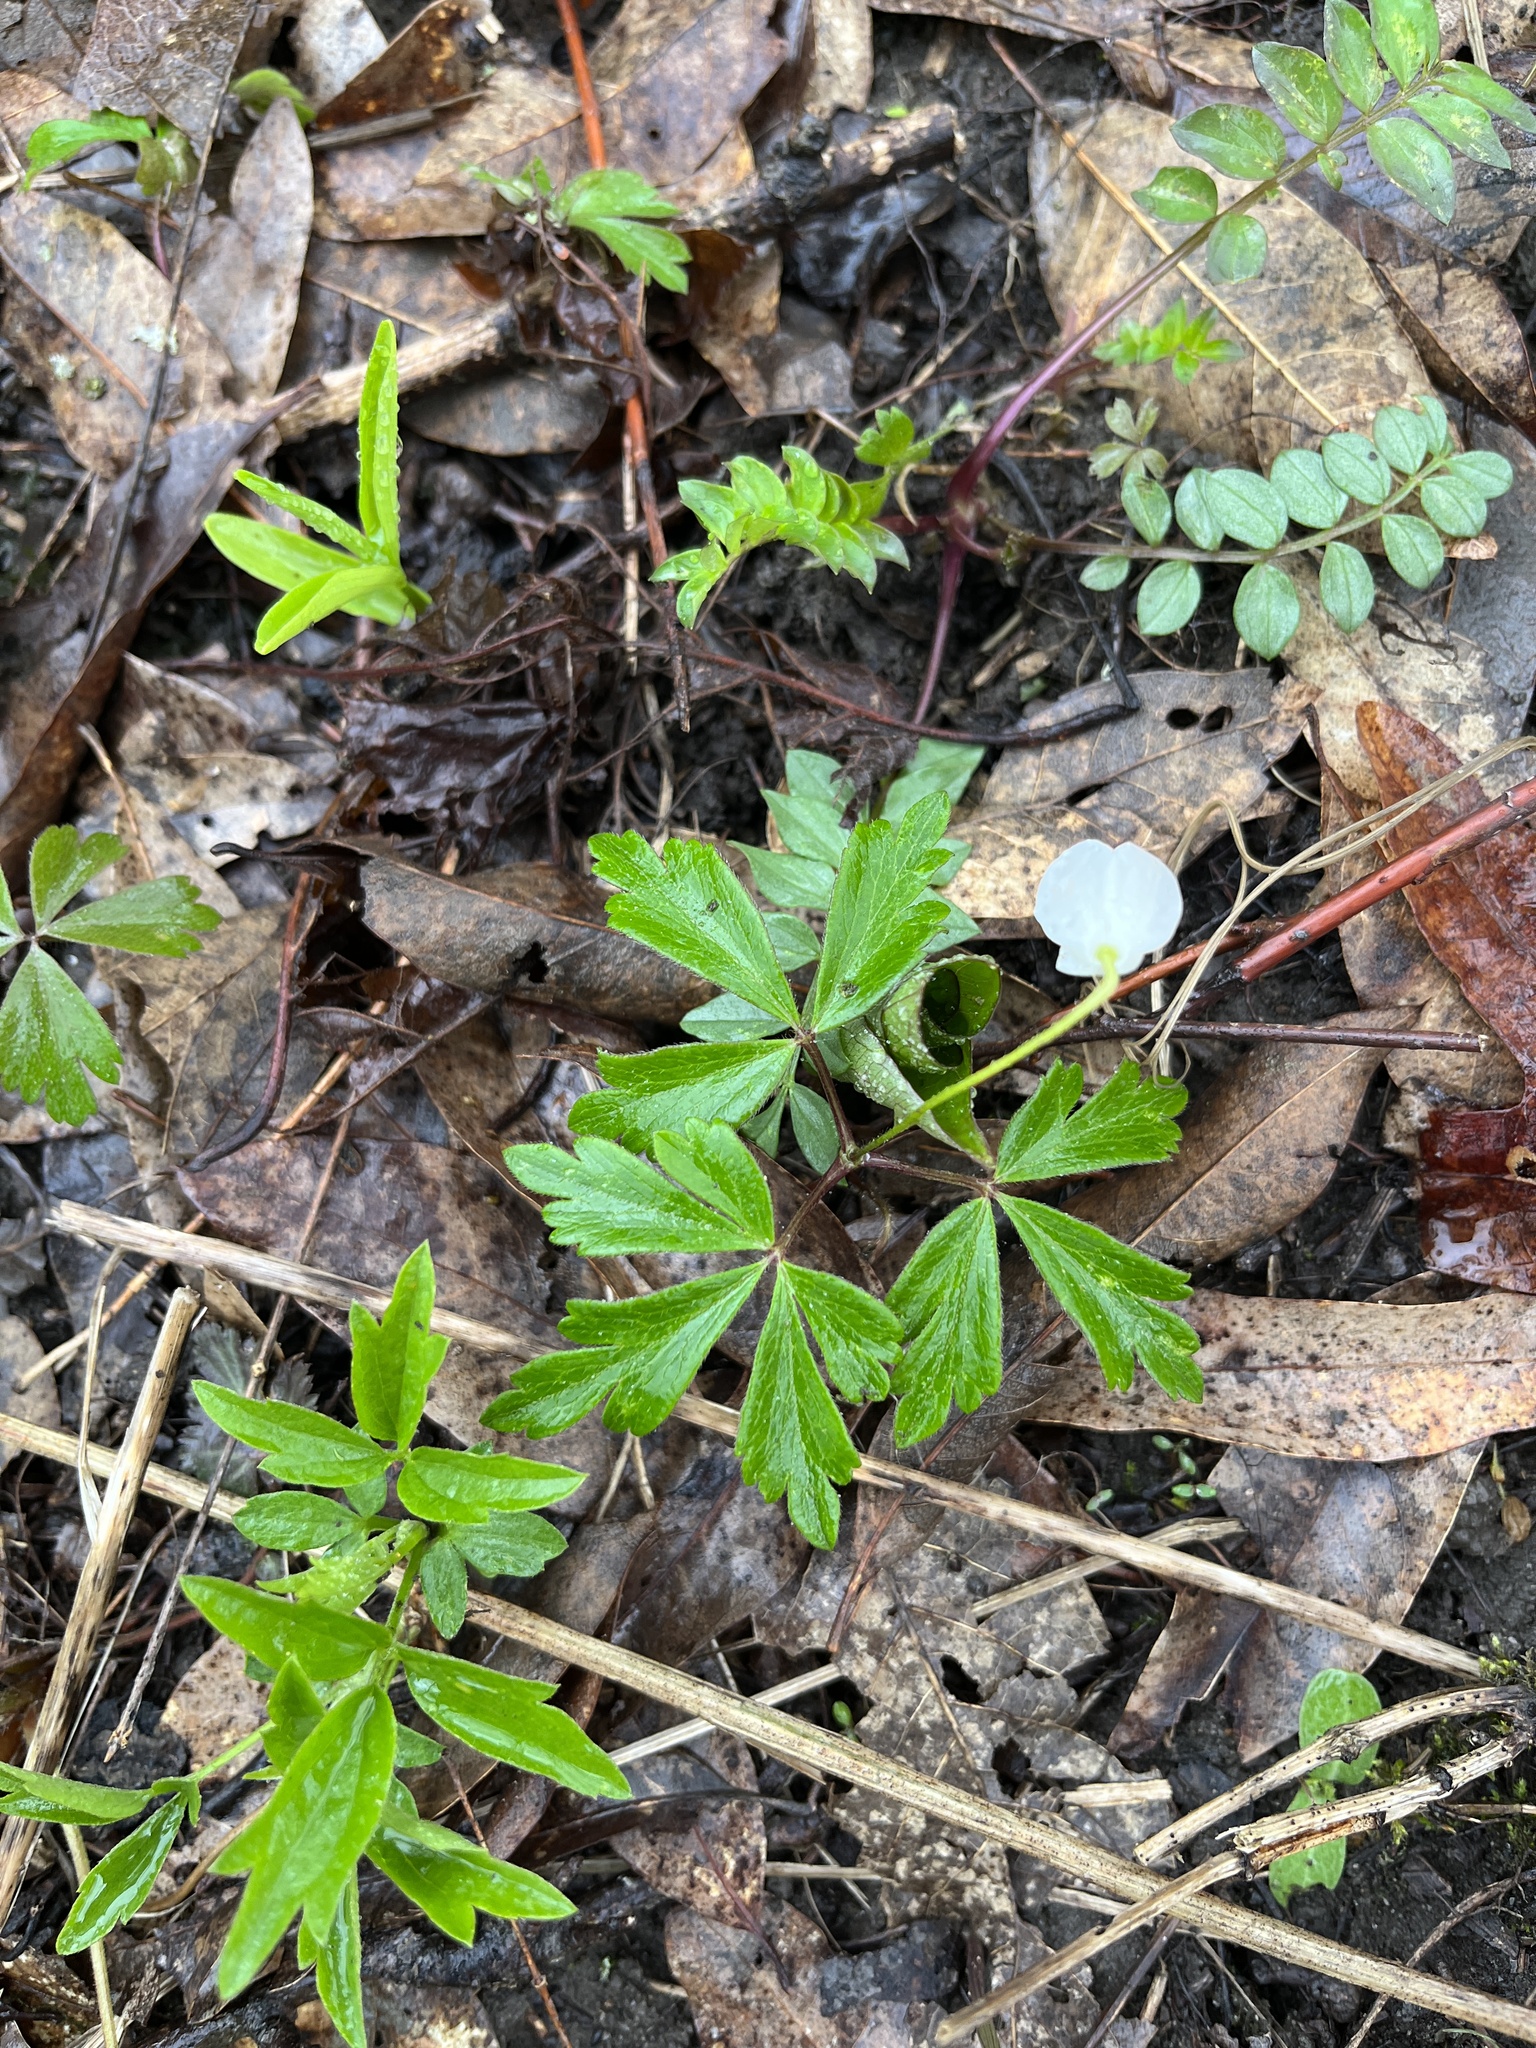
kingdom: Plantae
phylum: Tracheophyta
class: Magnoliopsida
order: Ranunculales
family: Ranunculaceae
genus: Anemone
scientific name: Anemone quinquefolia
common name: Wood anemone
